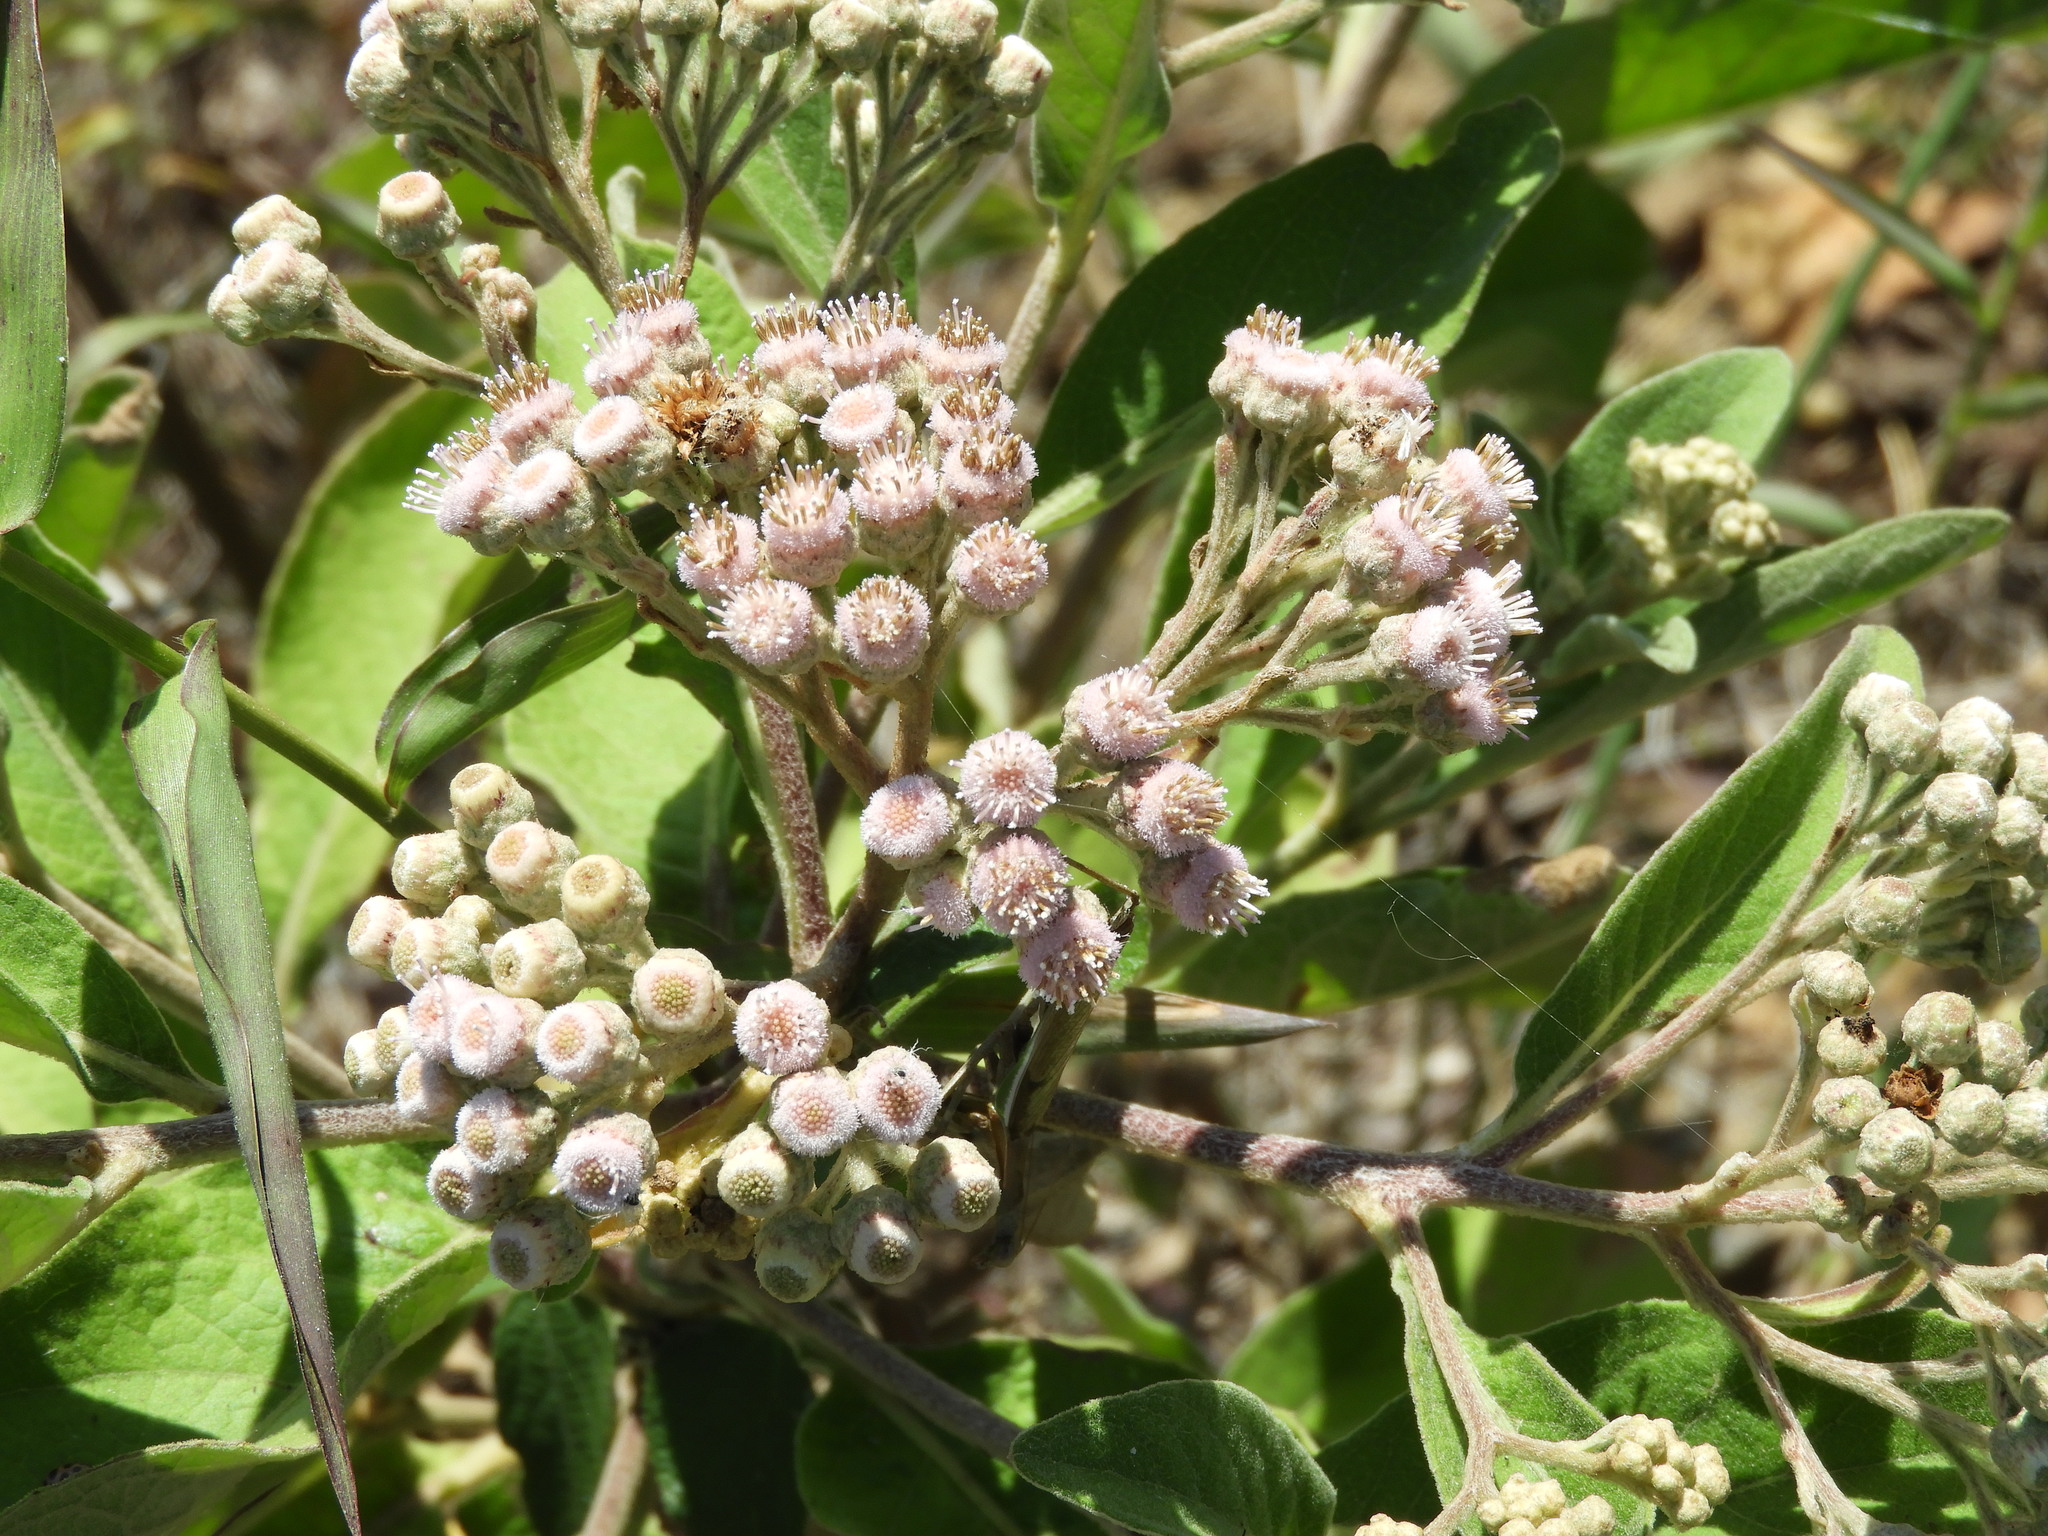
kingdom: Plantae
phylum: Tracheophyta
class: Magnoliopsida
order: Asterales
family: Asteraceae
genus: Pluchea
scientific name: Pluchea carolinensis
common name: Marsh fleabane
